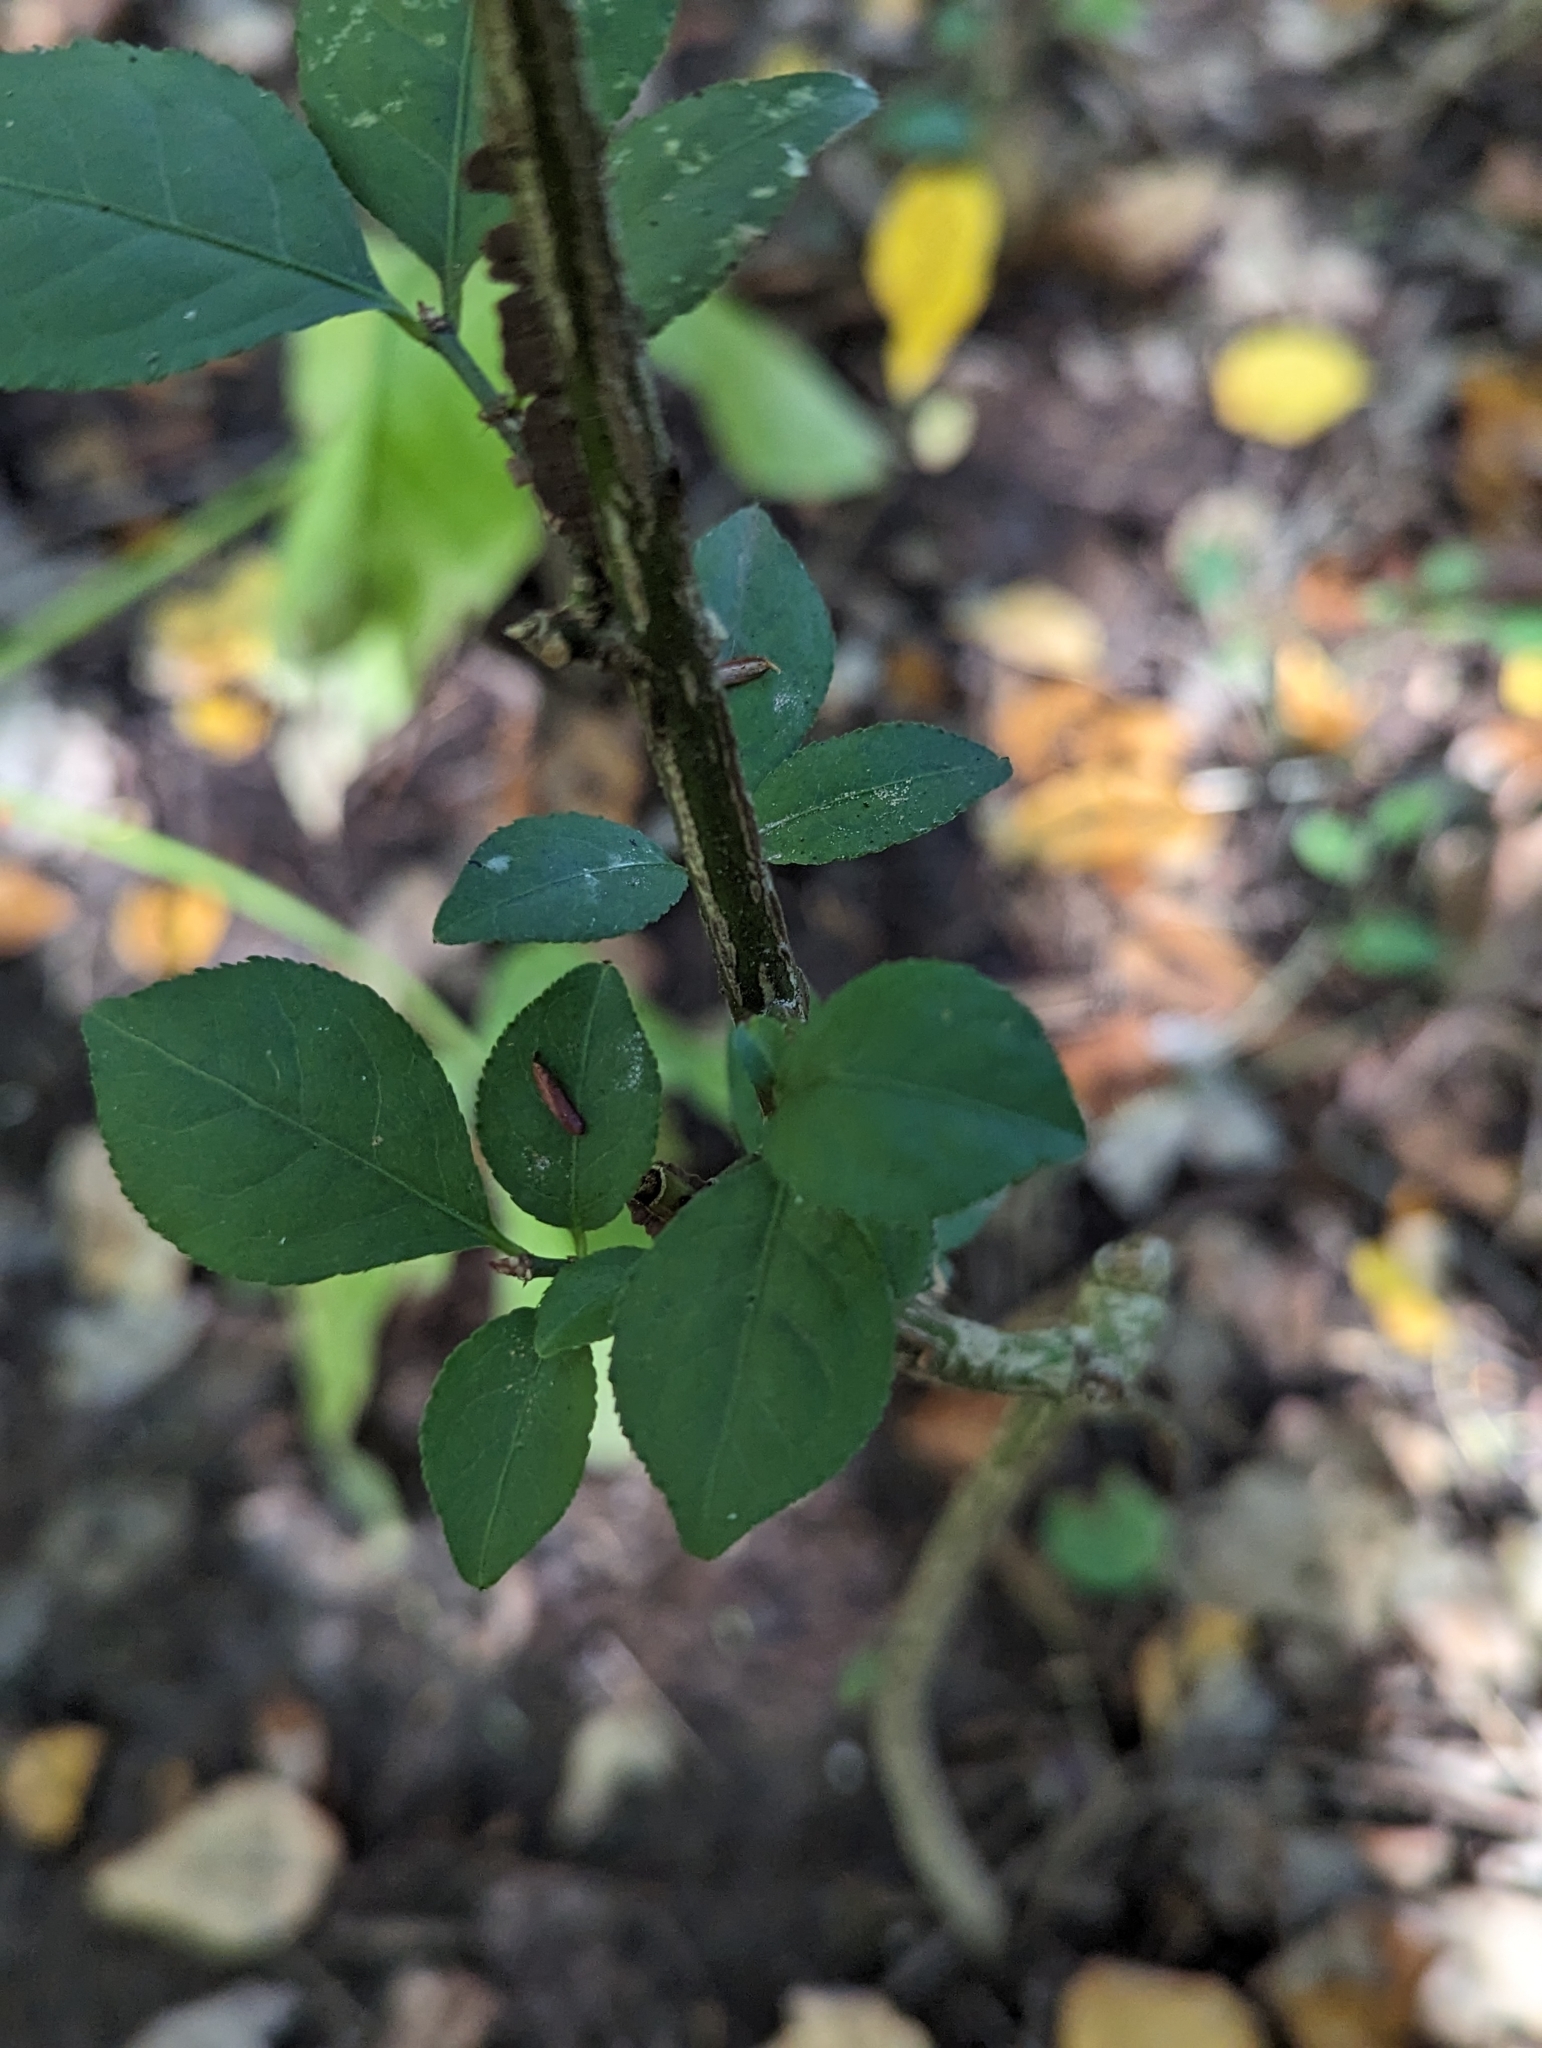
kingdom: Plantae
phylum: Tracheophyta
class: Magnoliopsida
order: Celastrales
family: Celastraceae
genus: Euonymus
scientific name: Euonymus alatus
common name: Winged euonymus
